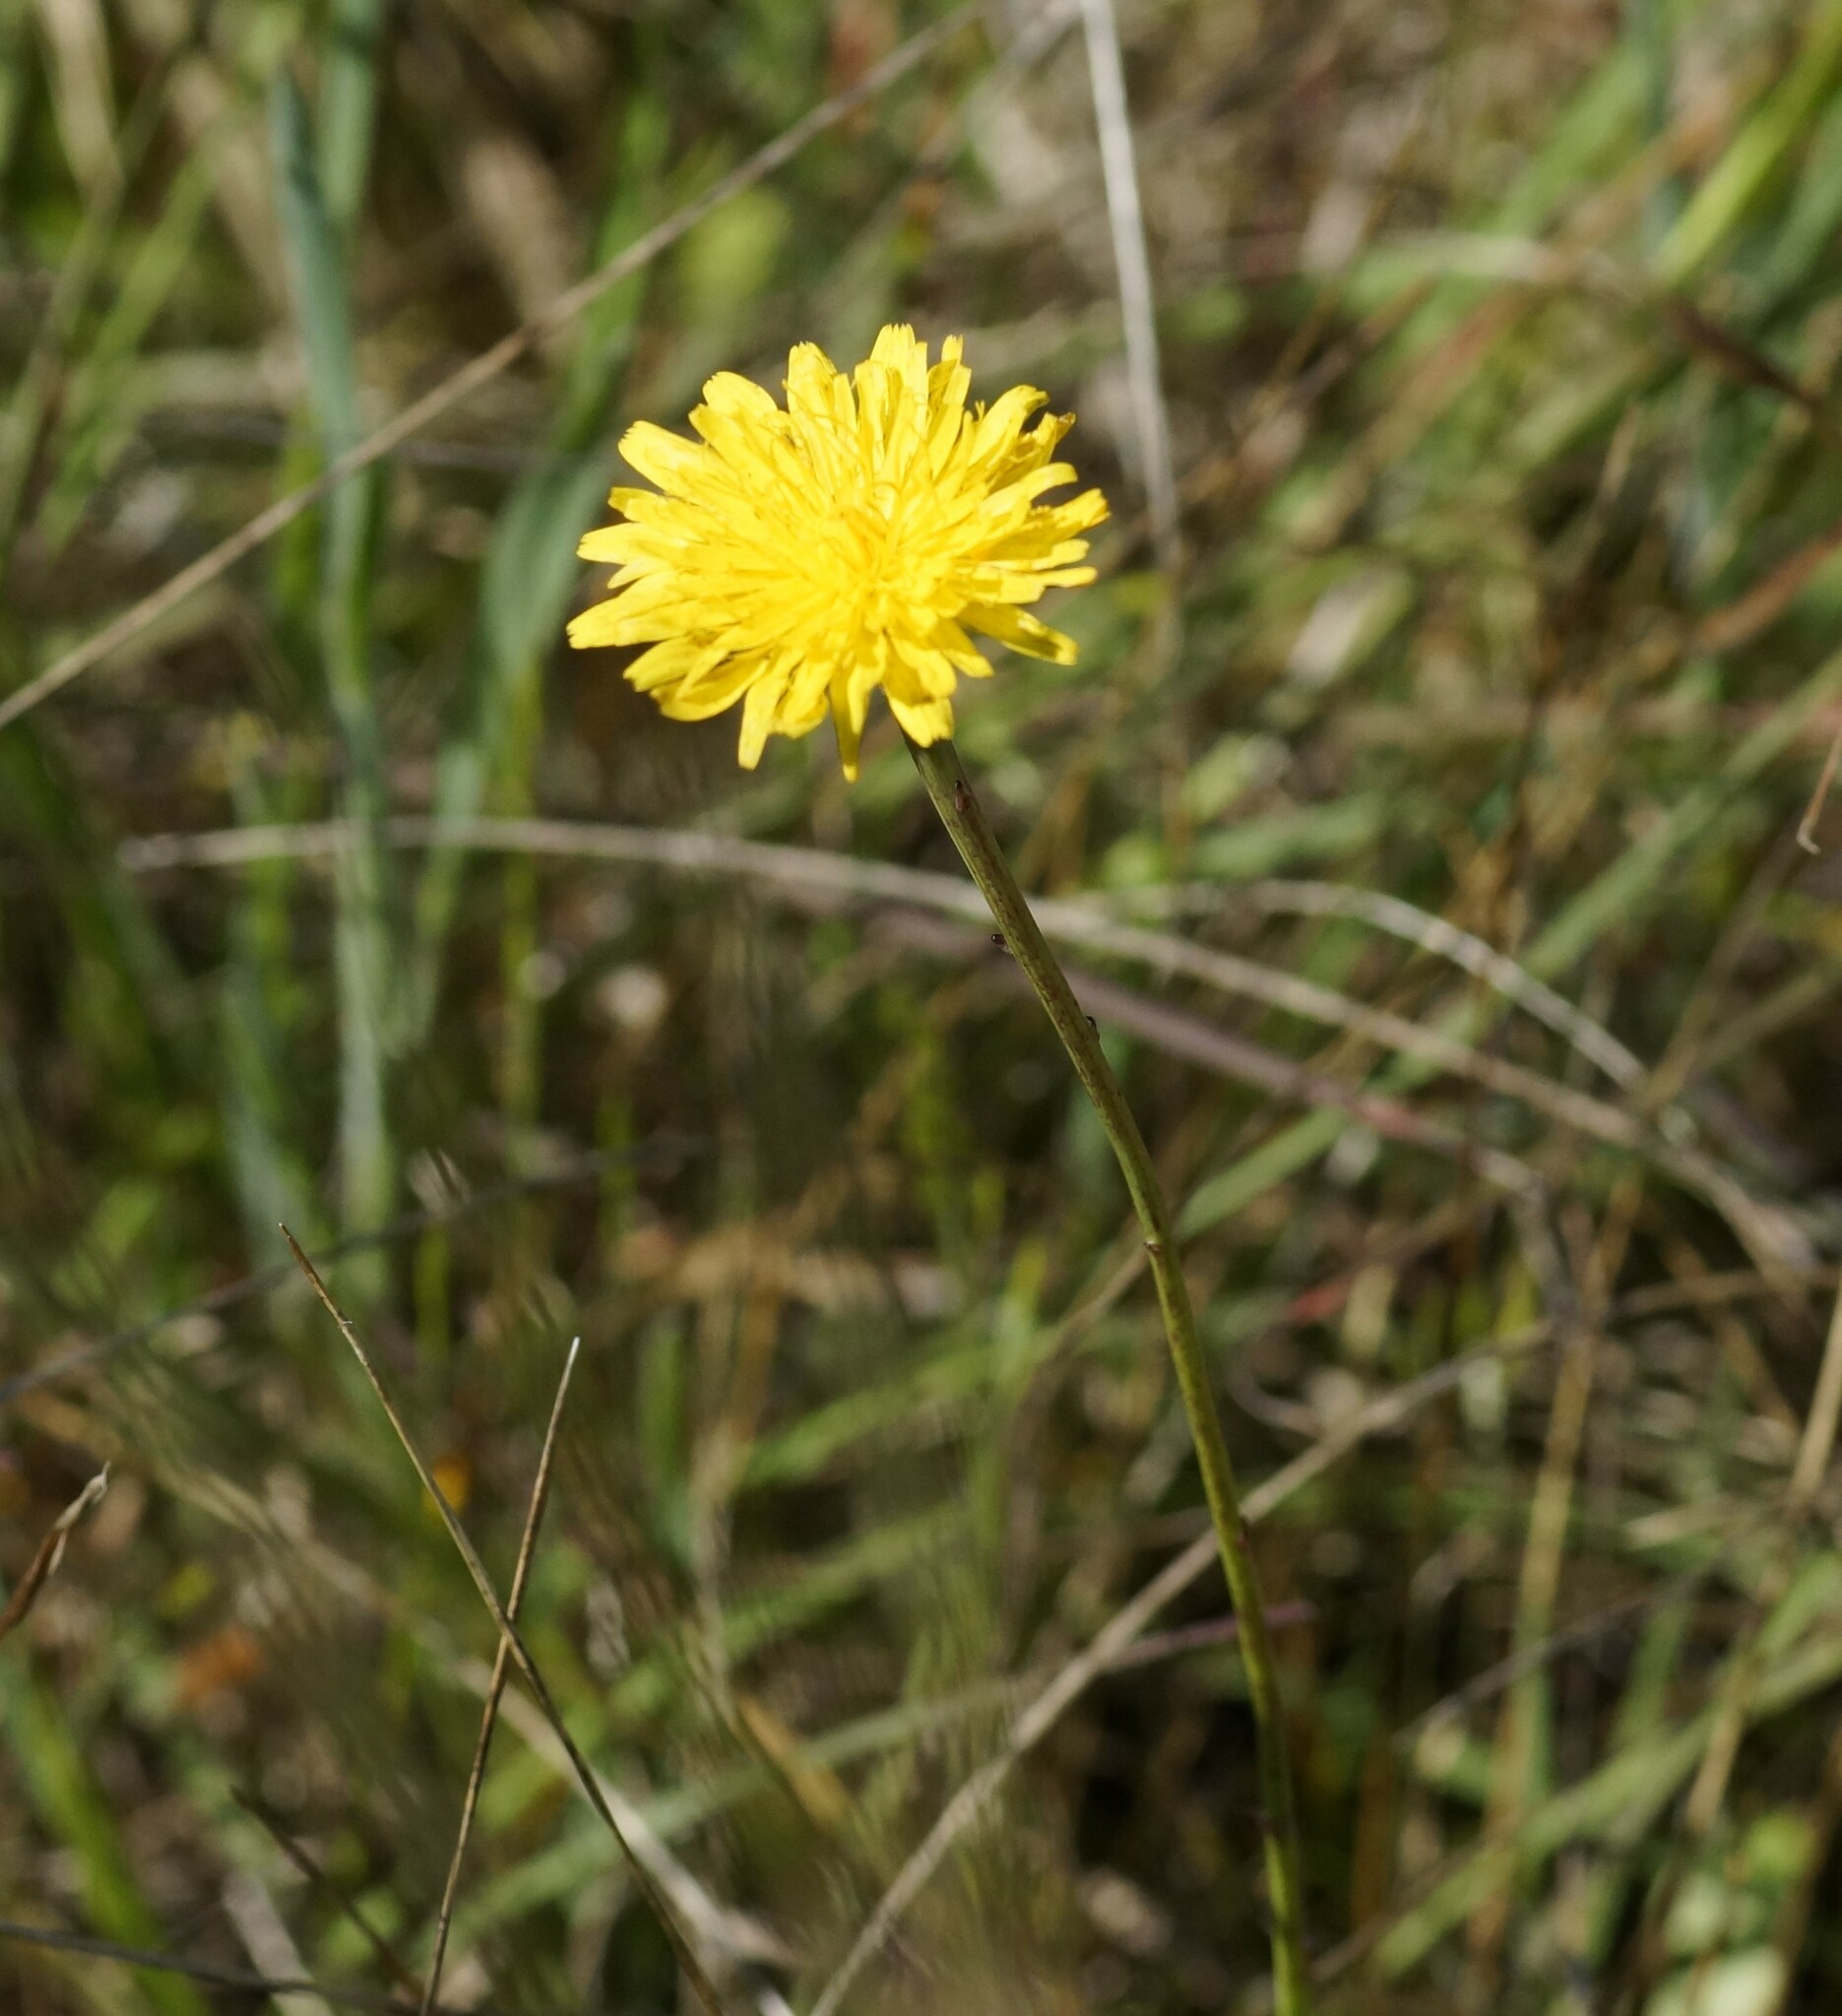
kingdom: Plantae
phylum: Tracheophyta
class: Magnoliopsida
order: Asterales
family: Asteraceae
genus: Hypochaeris
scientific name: Hypochaeris radicata
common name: Flatweed
